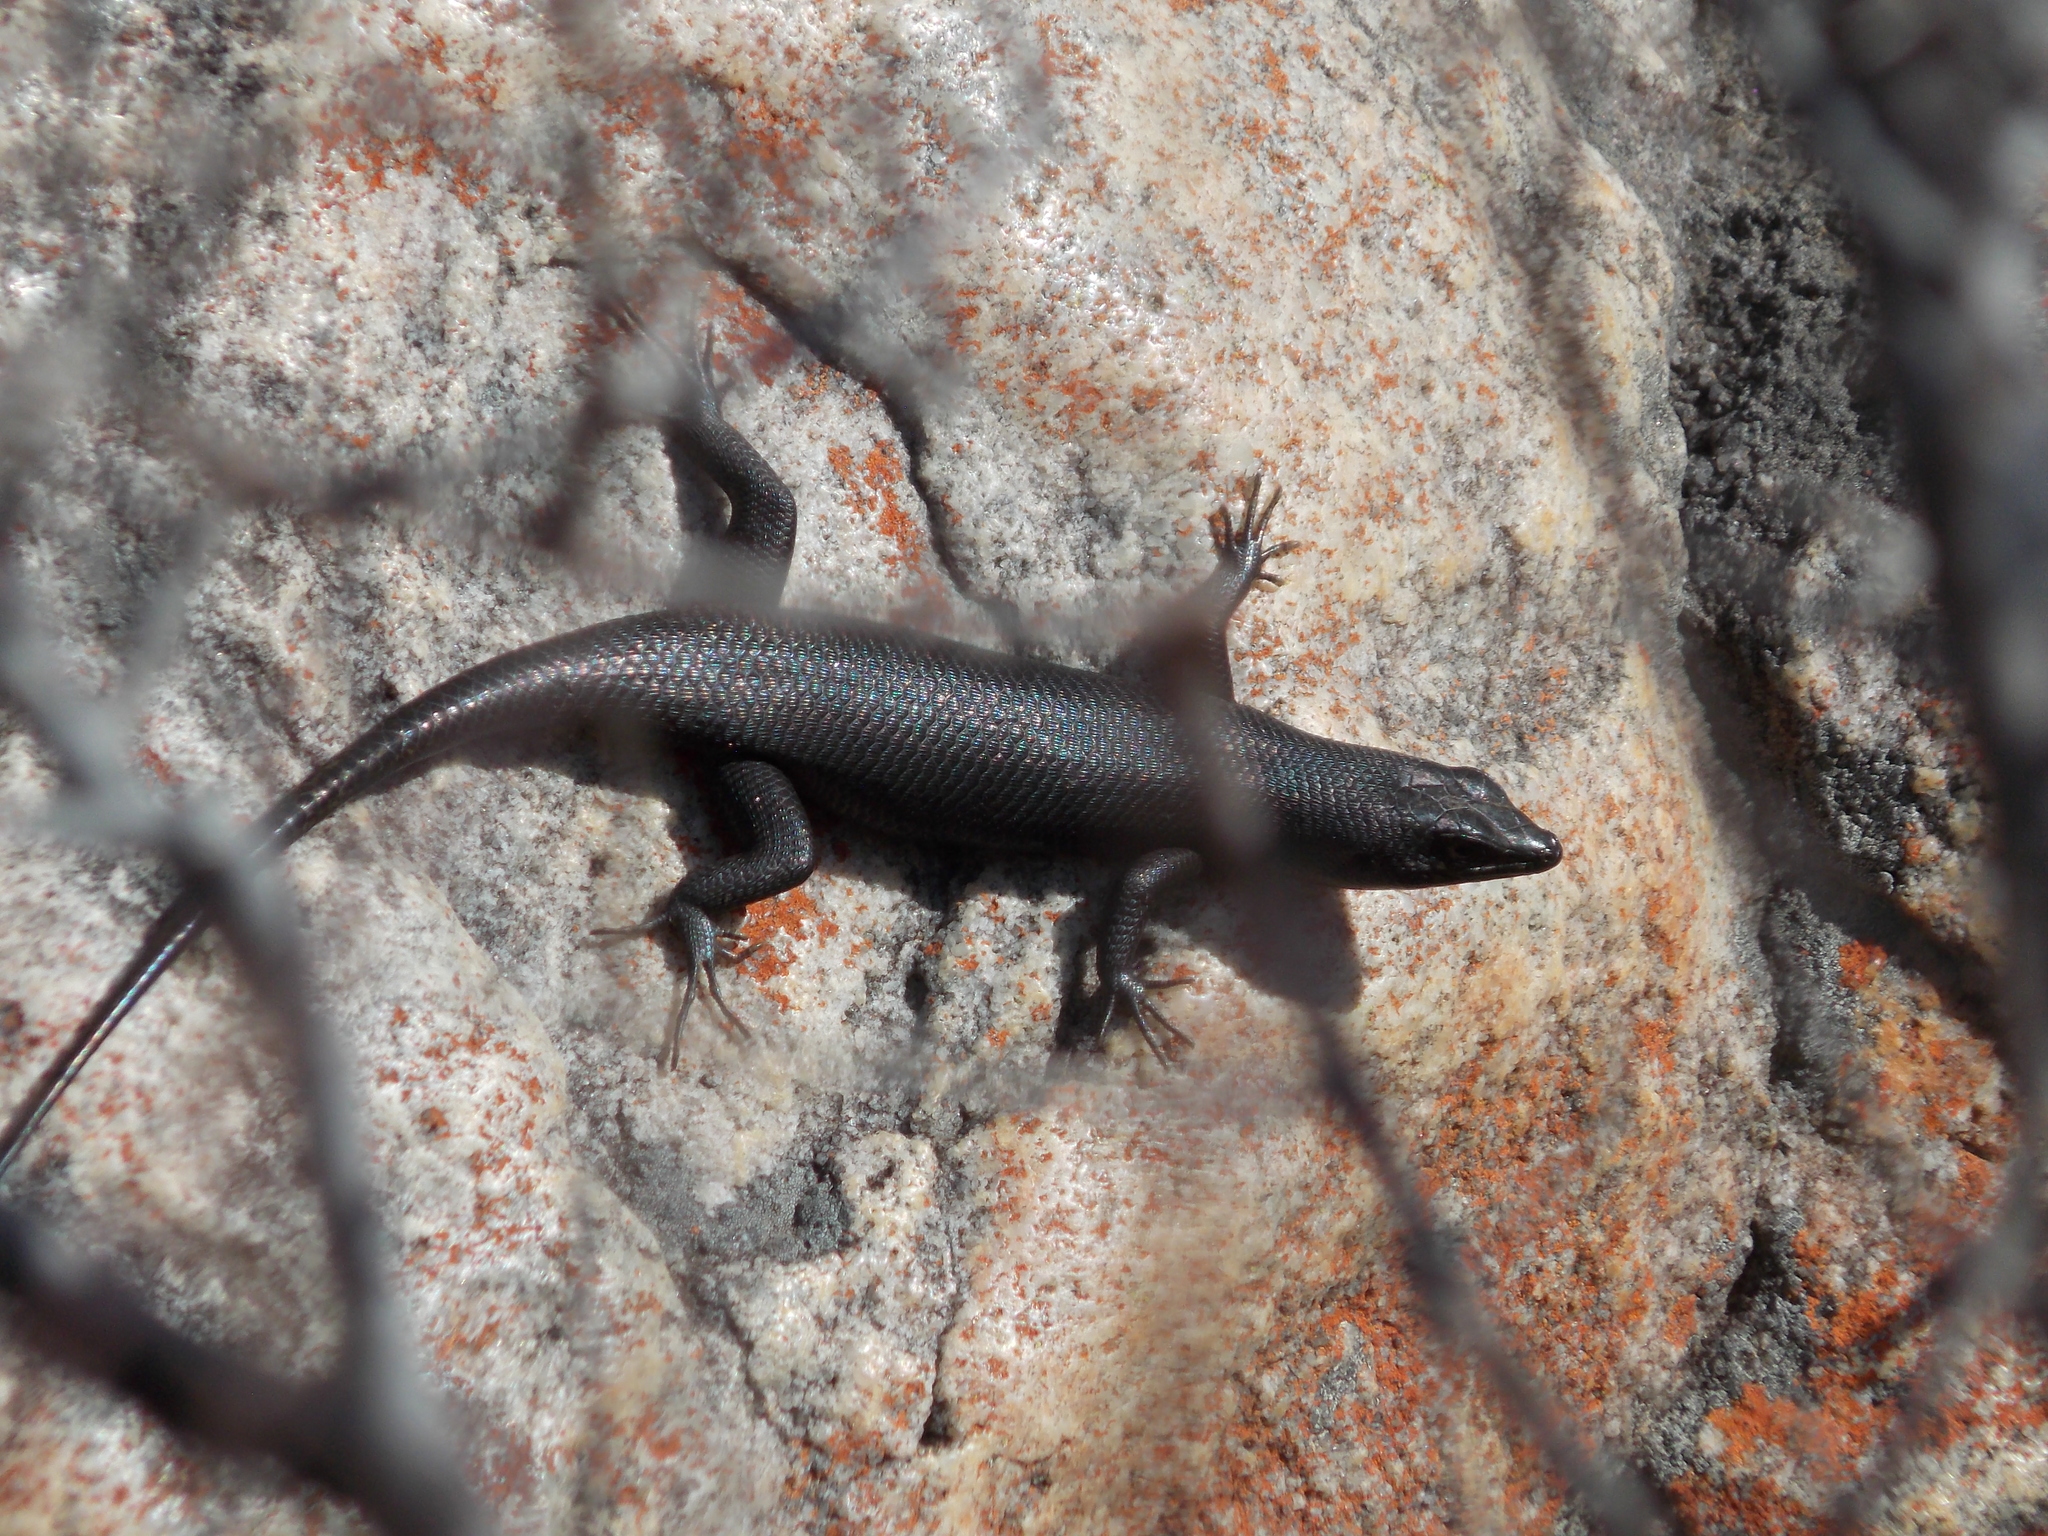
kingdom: Animalia
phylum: Chordata
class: Squamata
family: Scincidae
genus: Trachylepis
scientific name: Trachylepis sulcata
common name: Western rock skink
